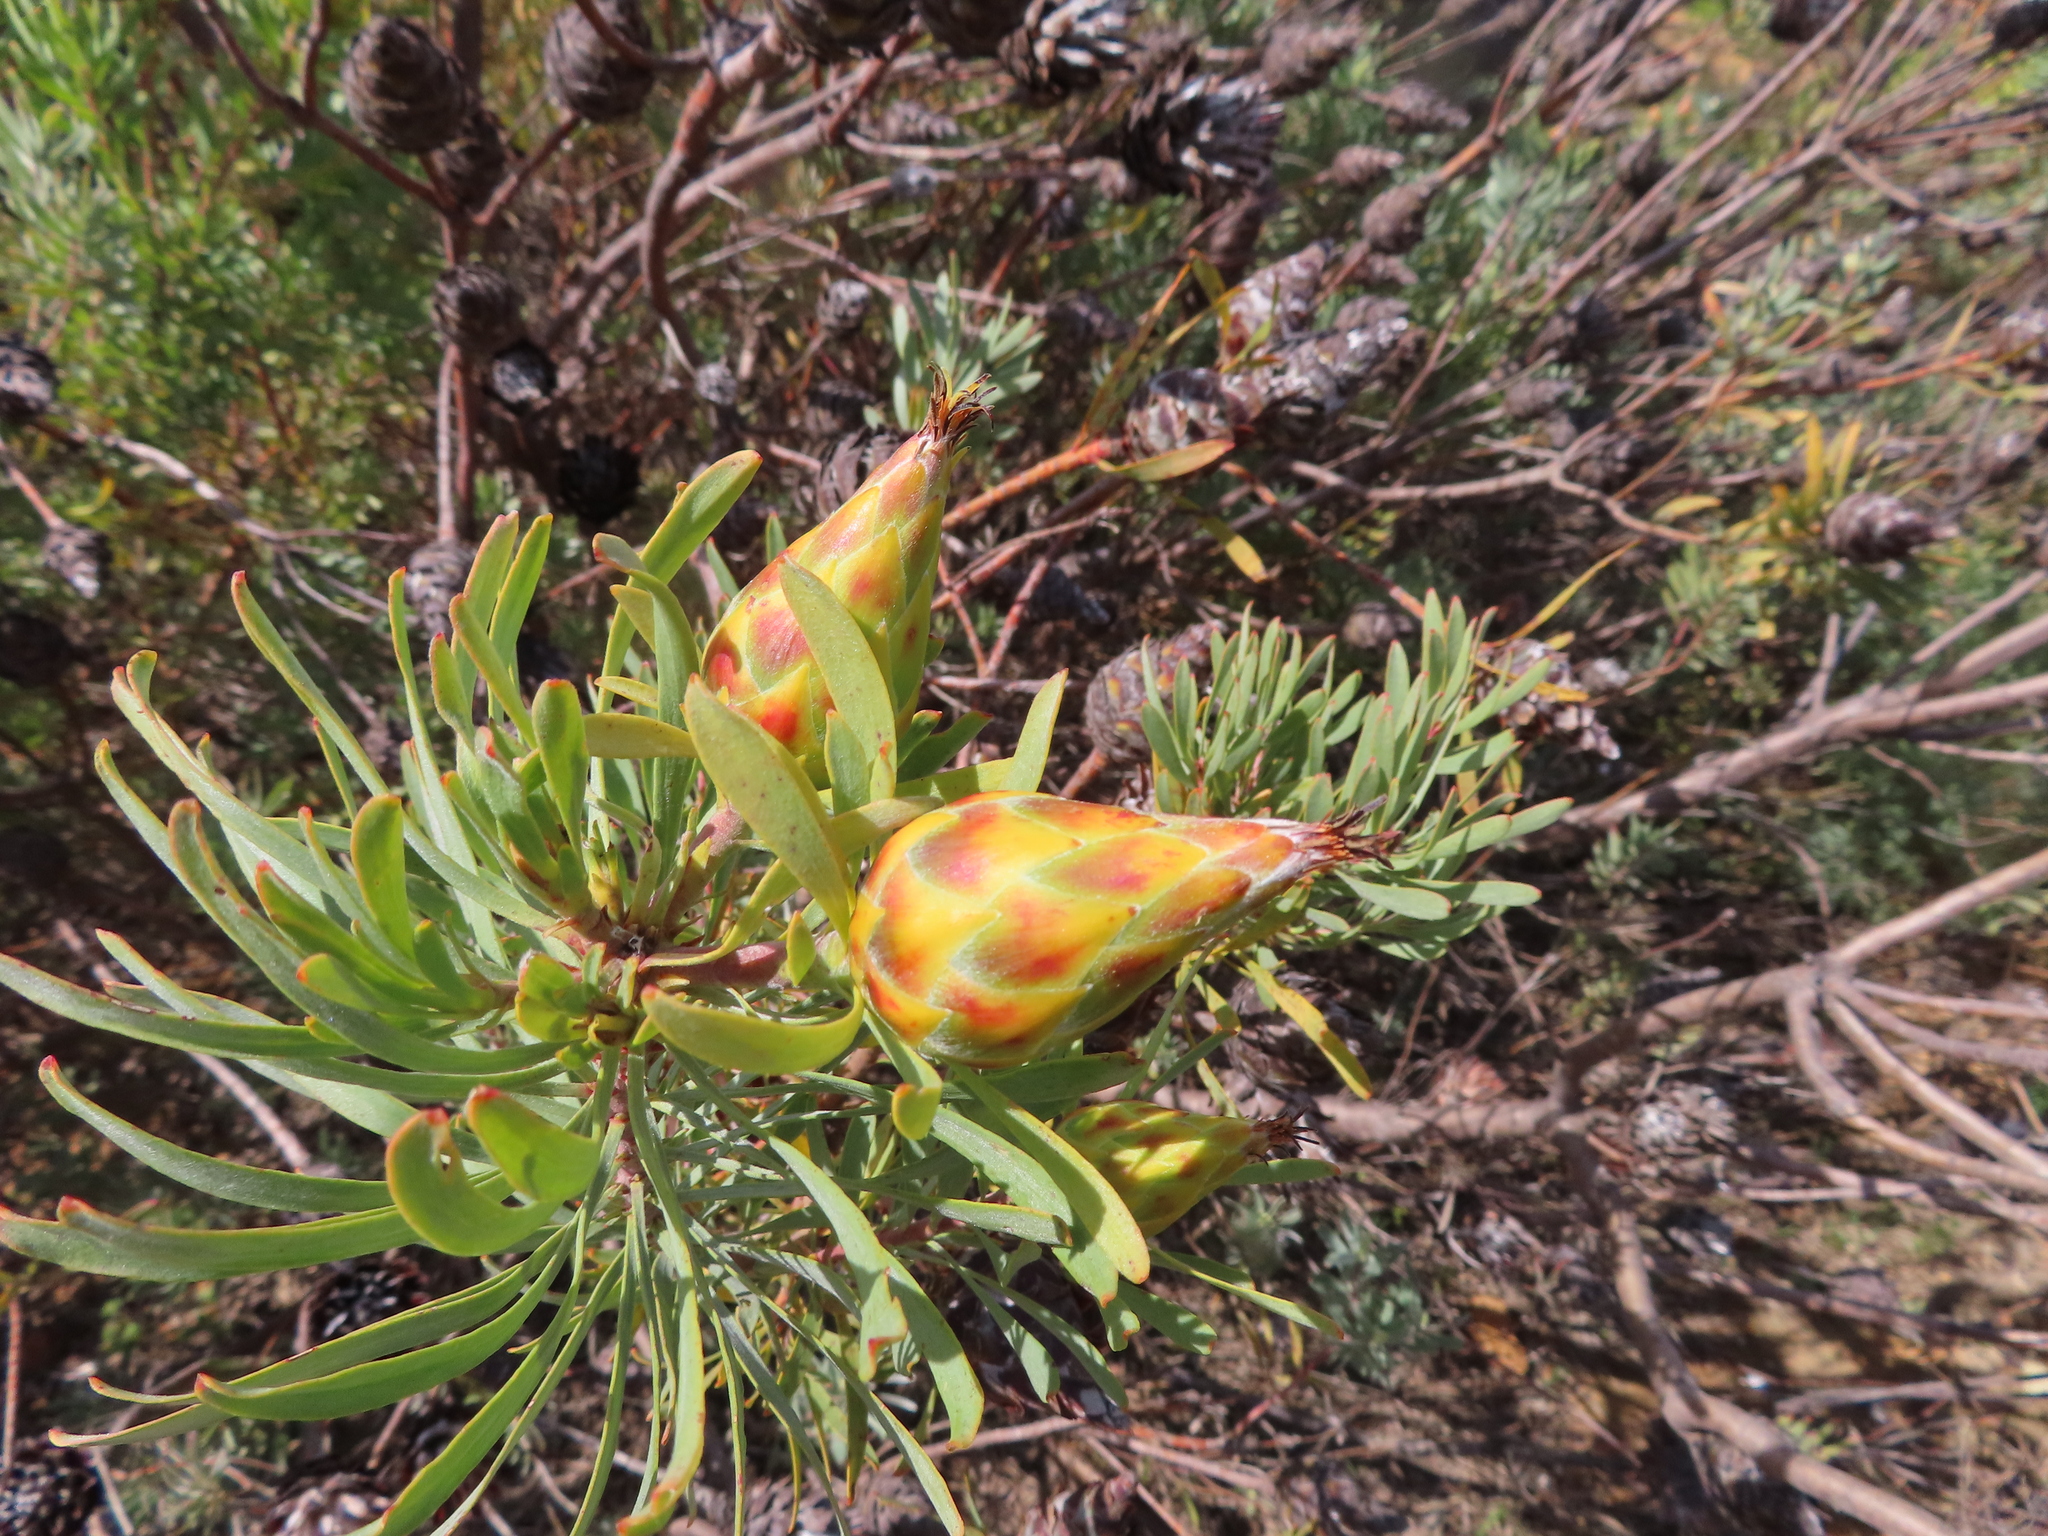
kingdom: Plantae
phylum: Tracheophyta
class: Magnoliopsida
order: Proteales
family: Proteaceae
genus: Leucadendron
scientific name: Leucadendron rubrum
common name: Spinning top
